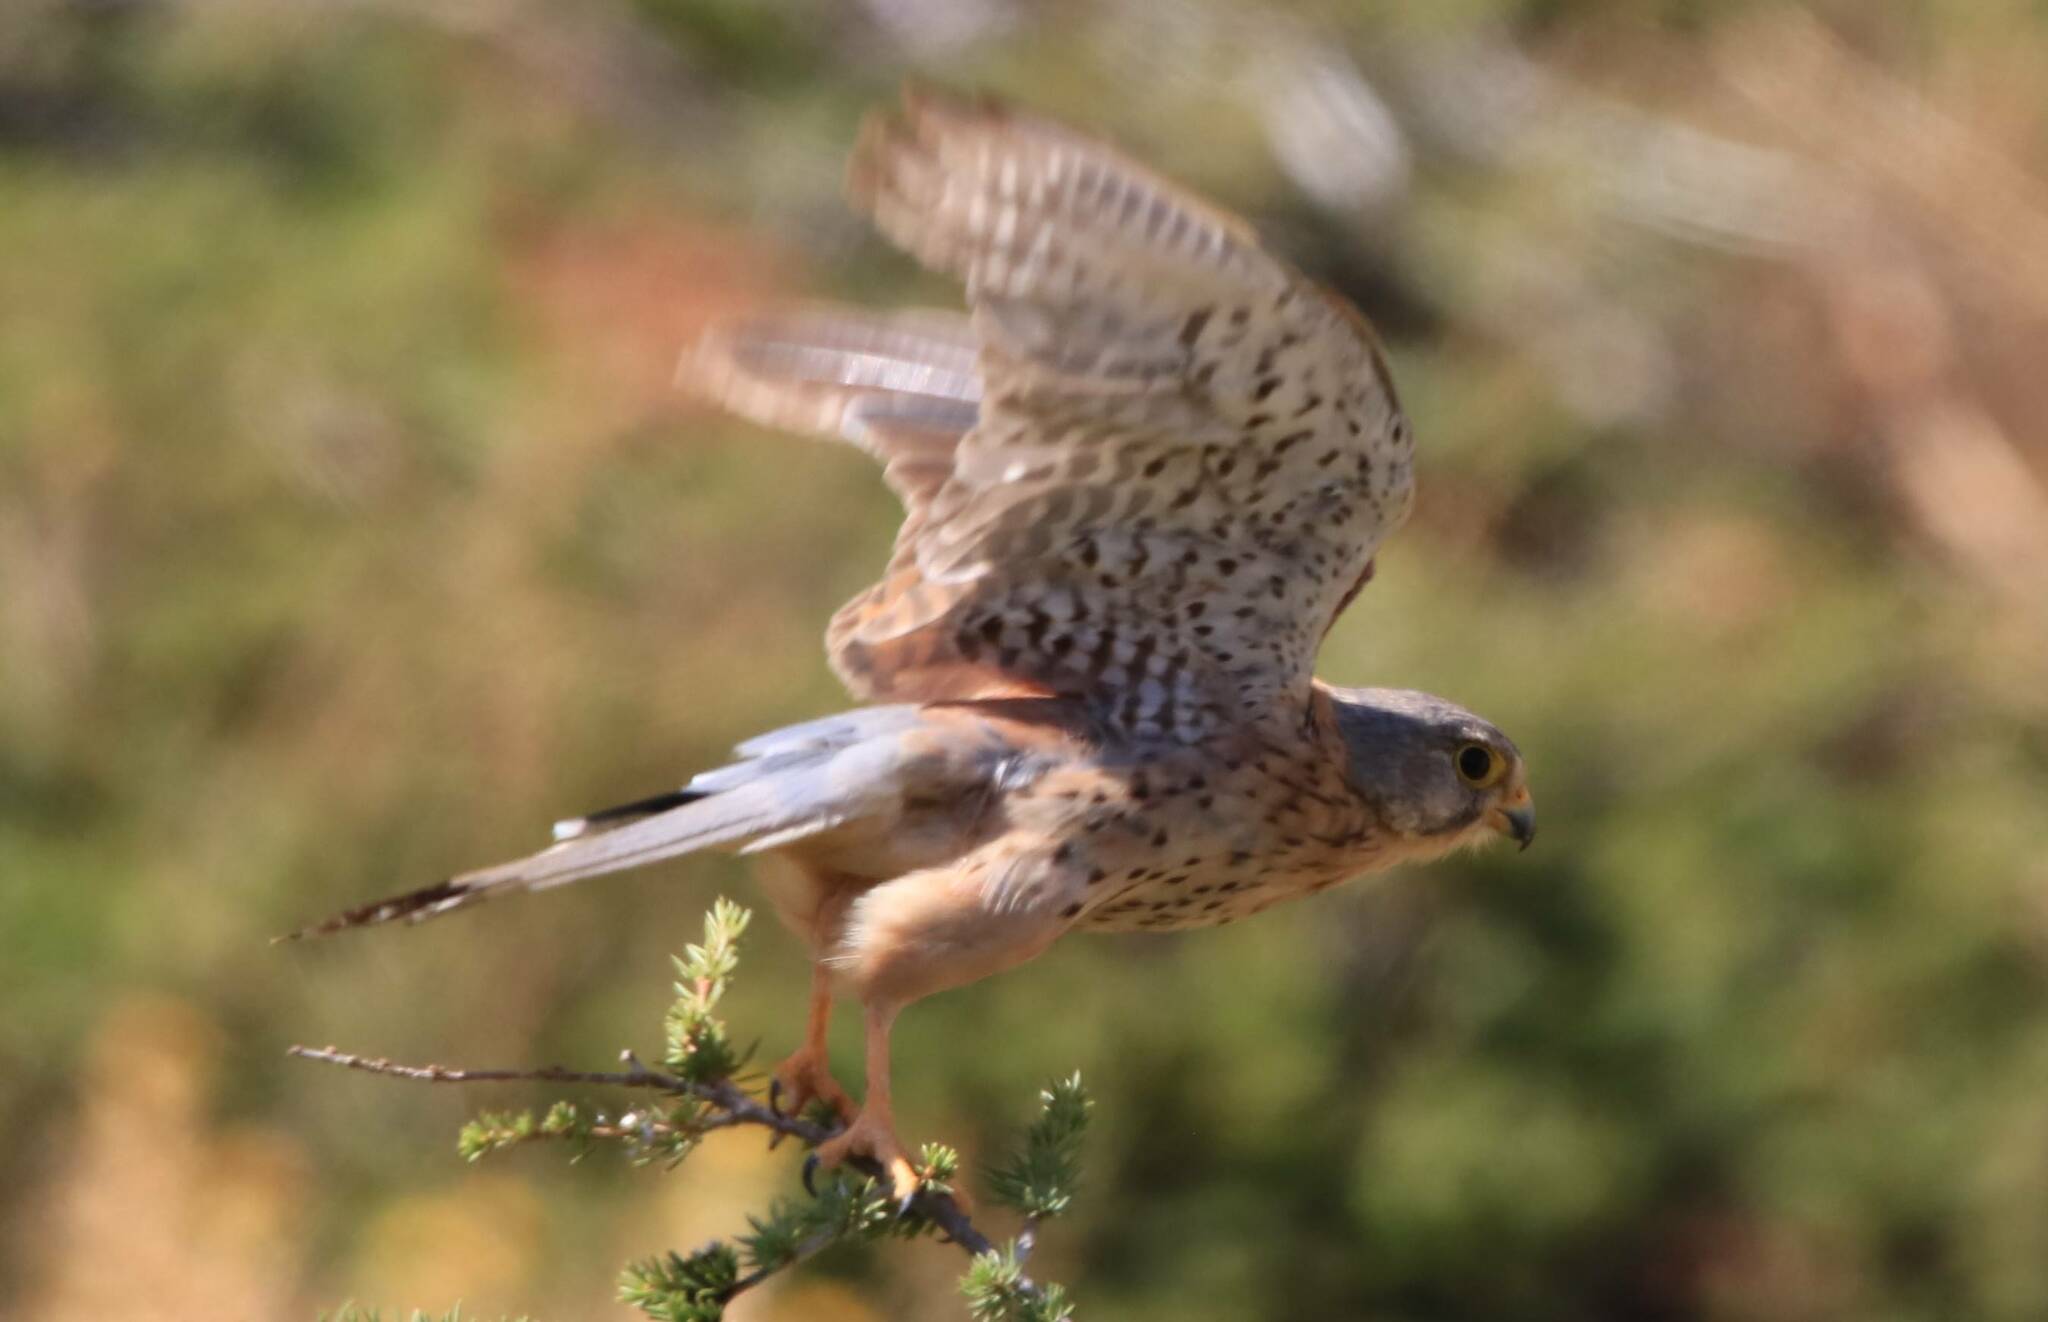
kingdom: Animalia
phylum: Chordata
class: Aves
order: Falconiformes
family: Falconidae
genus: Falco
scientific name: Falco tinnunculus
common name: Common kestrel
